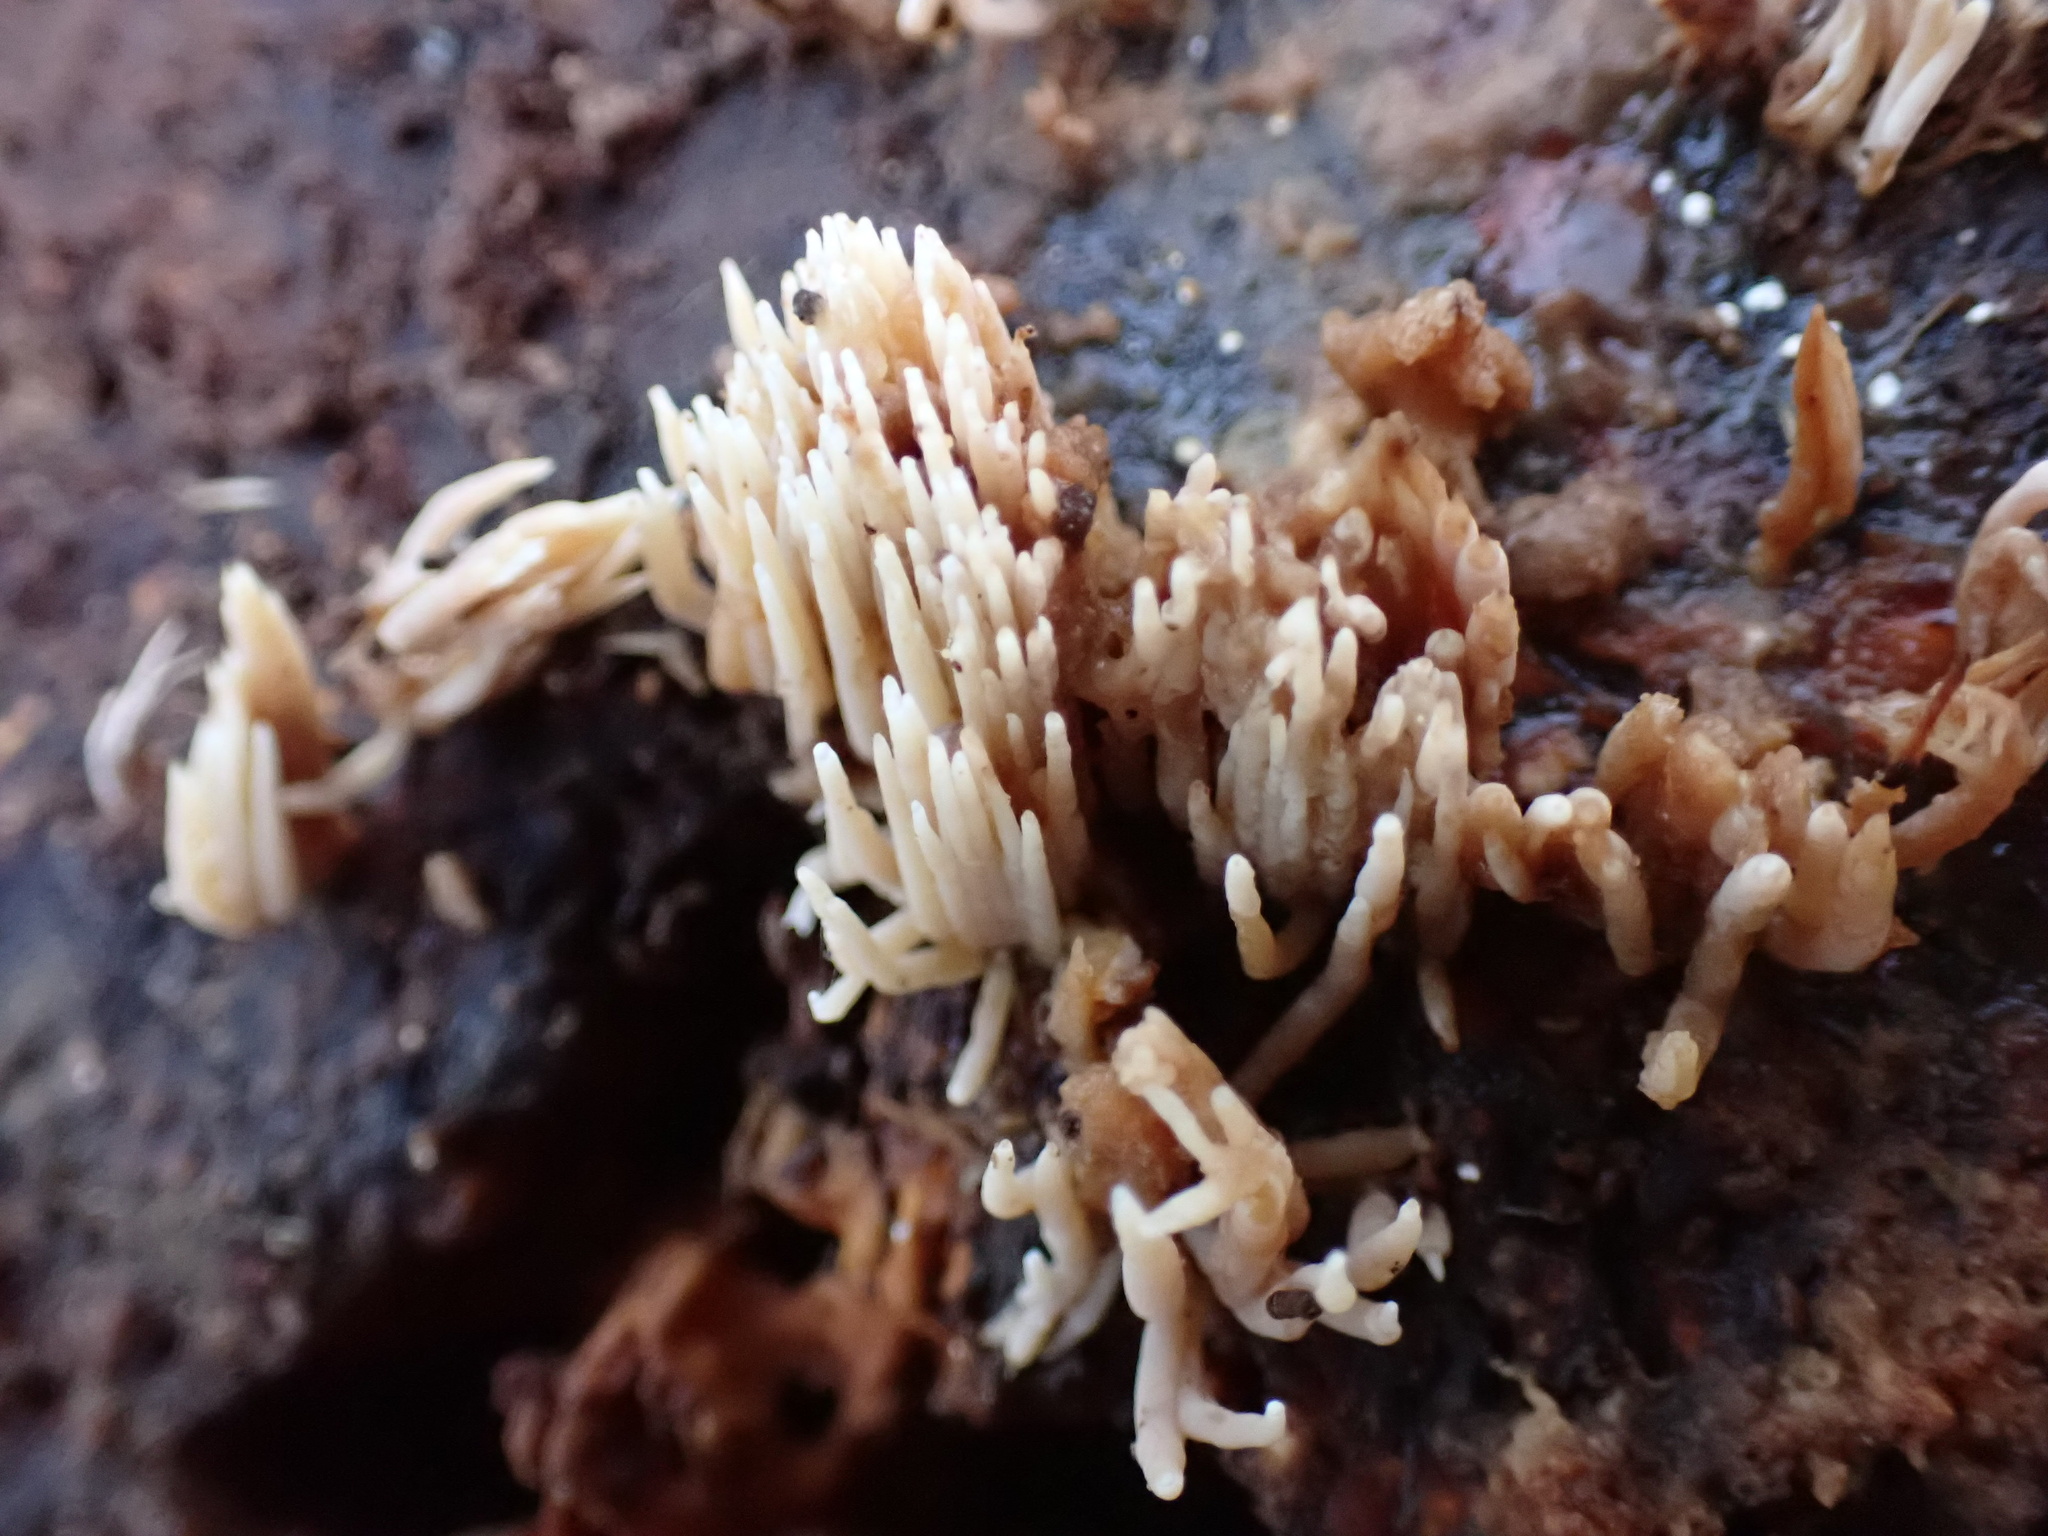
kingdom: Fungi
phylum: Basidiomycota
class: Agaricomycetes
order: Agaricales
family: Radulomycetaceae
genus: Radulomyces
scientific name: Radulomyces copelandii
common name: Asian beauty
